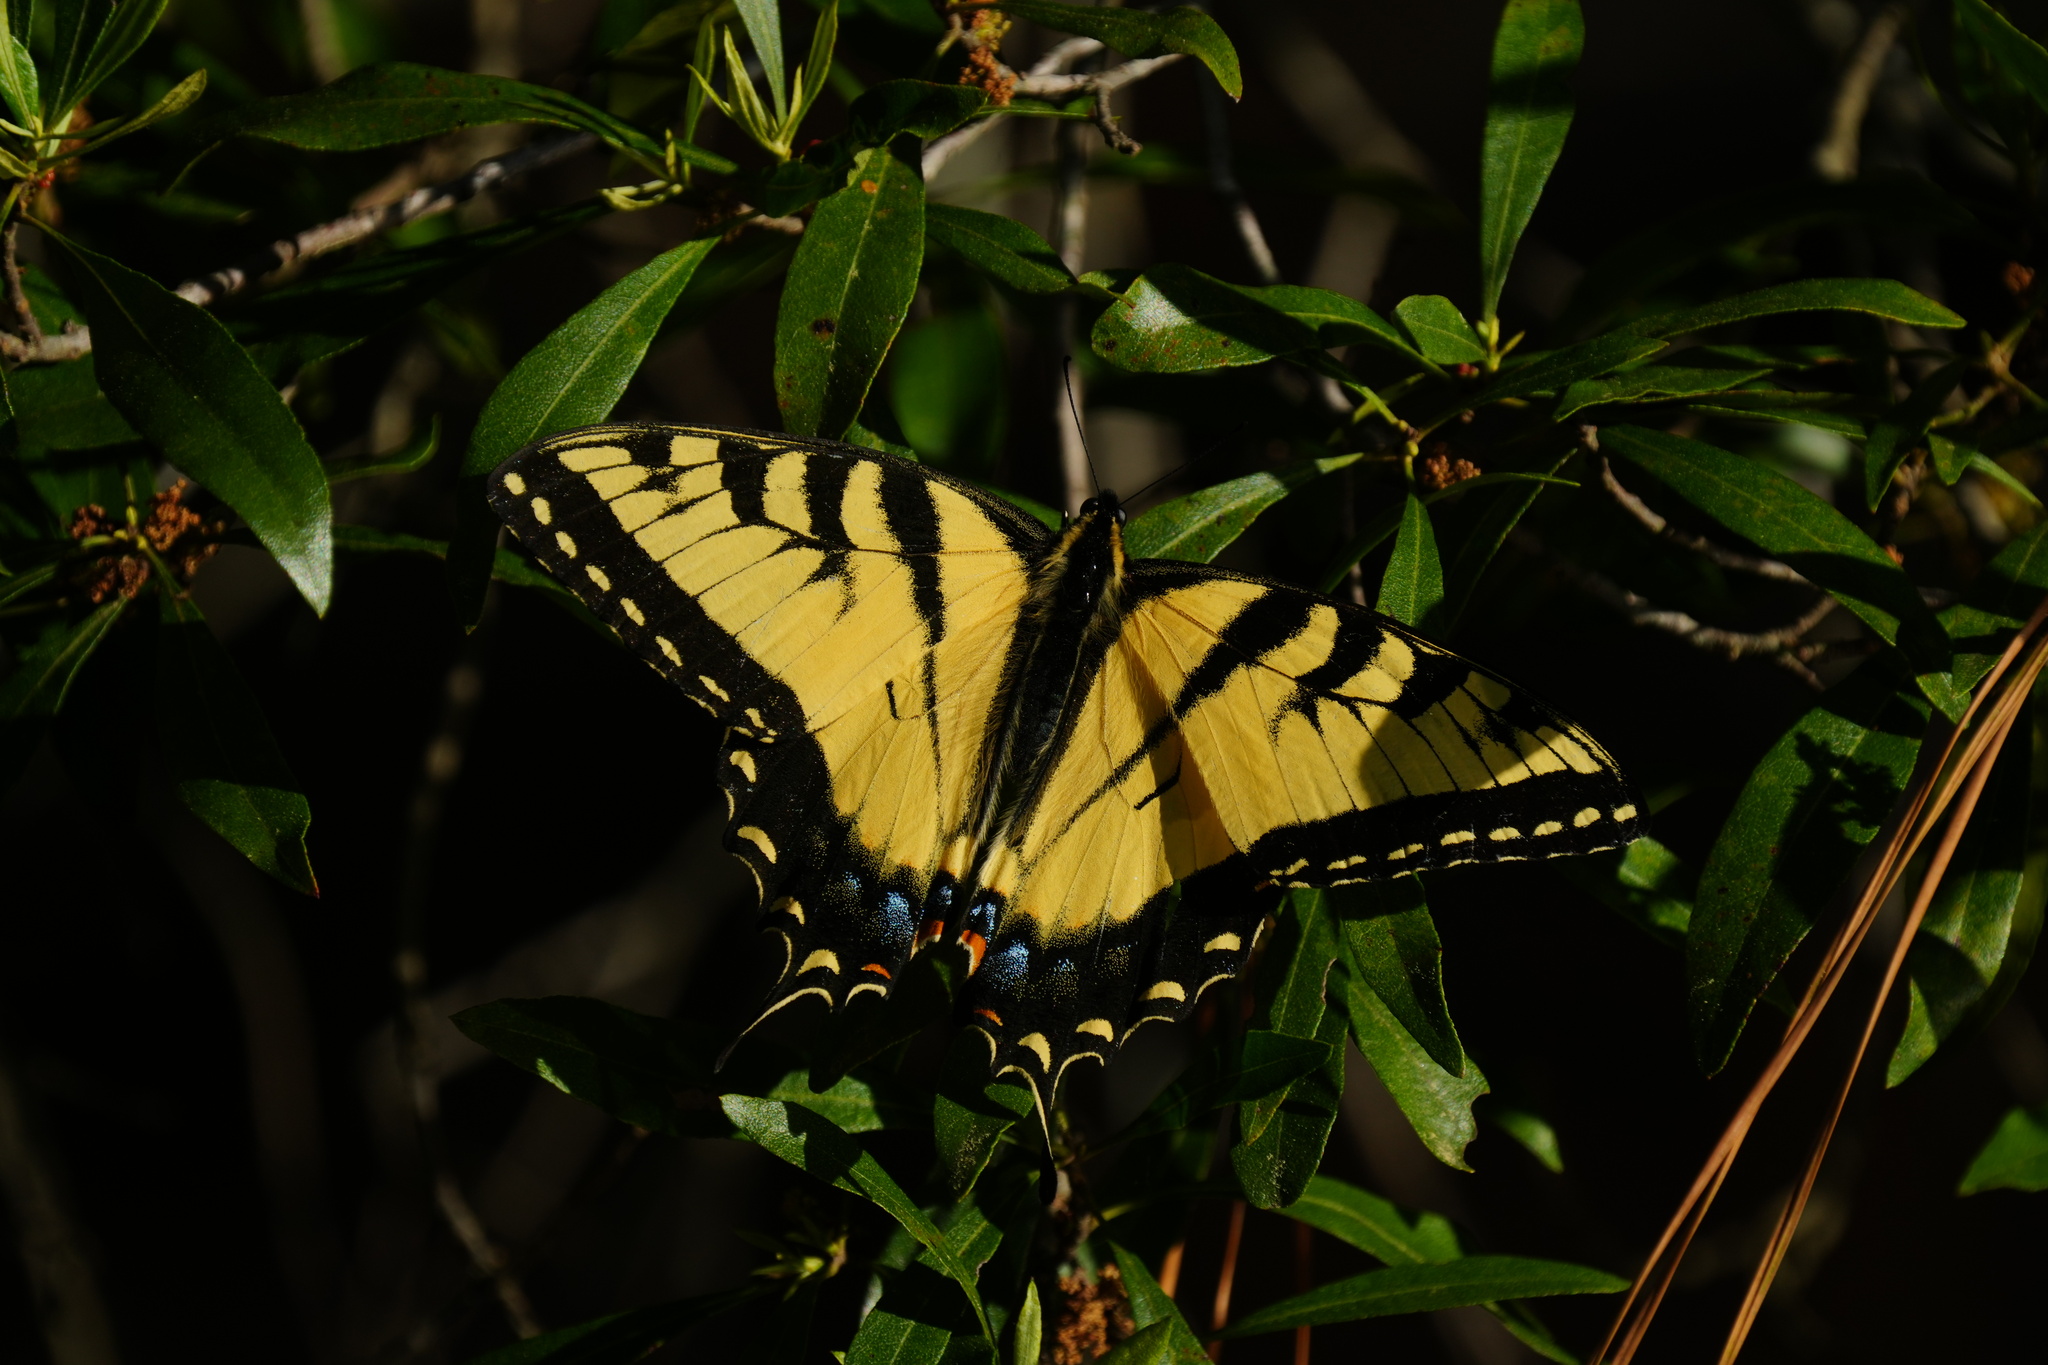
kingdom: Animalia
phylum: Arthropoda
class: Insecta
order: Lepidoptera
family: Papilionidae
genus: Papilio
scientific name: Papilio glaucus
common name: Tiger swallowtail
